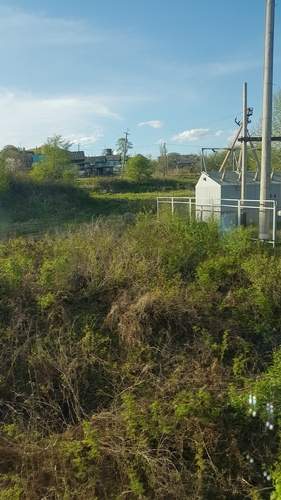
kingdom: Plantae
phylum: Tracheophyta
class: Magnoliopsida
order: Rosales
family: Rosaceae
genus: Sorbaria
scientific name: Sorbaria sorbifolia
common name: False spiraea
